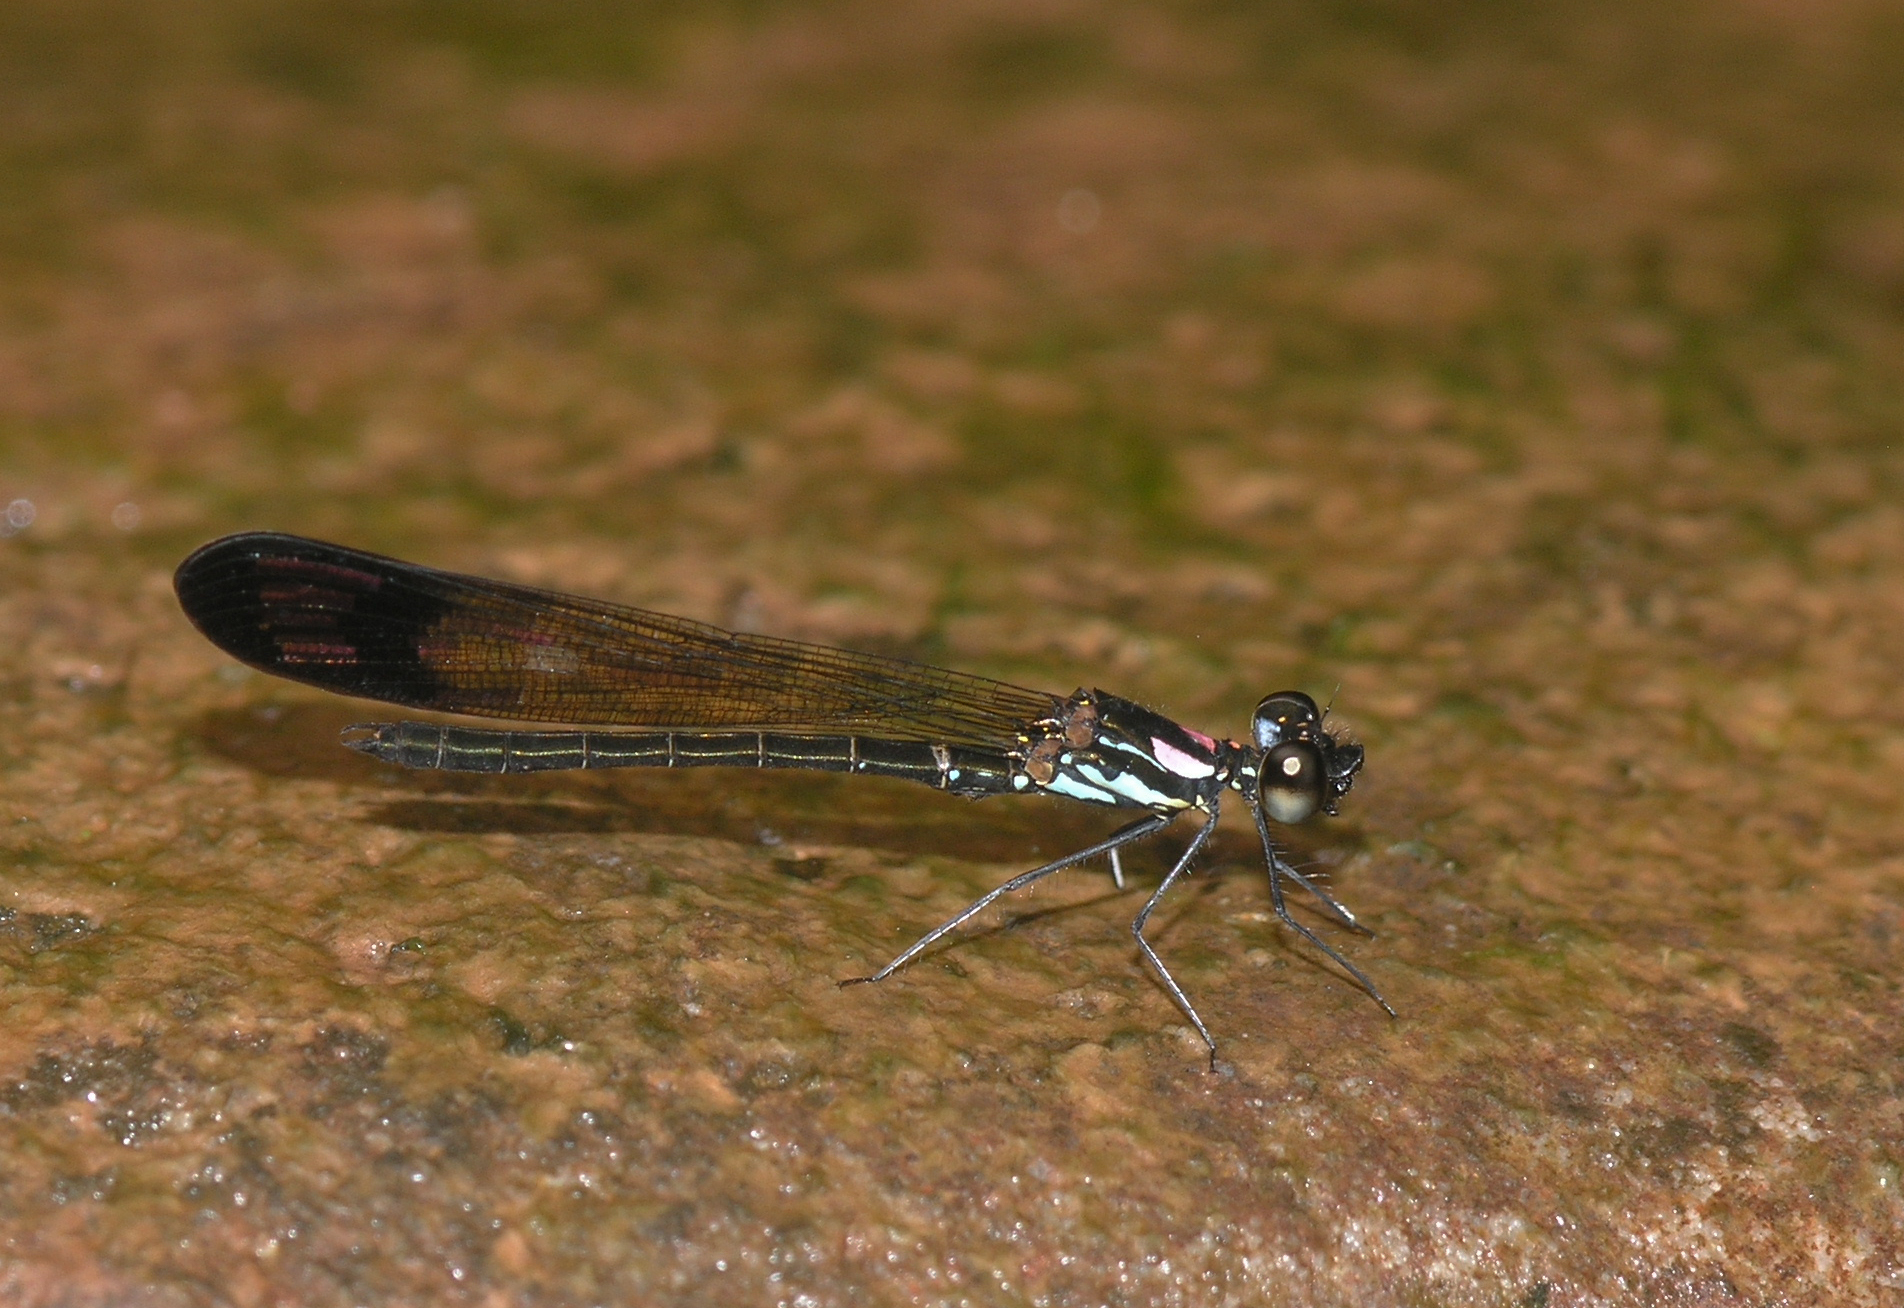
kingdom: Animalia
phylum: Arthropoda
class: Insecta
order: Odonata
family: Chlorocyphidae
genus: Heliocypha
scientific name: Heliocypha biforata
